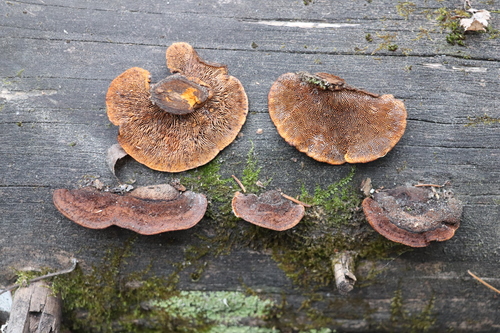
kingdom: Fungi
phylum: Basidiomycota
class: Agaricomycetes
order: Gloeophyllales
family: Gloeophyllaceae
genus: Gloeophyllum
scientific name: Gloeophyllum sepiarium
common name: Conifer mazegill
